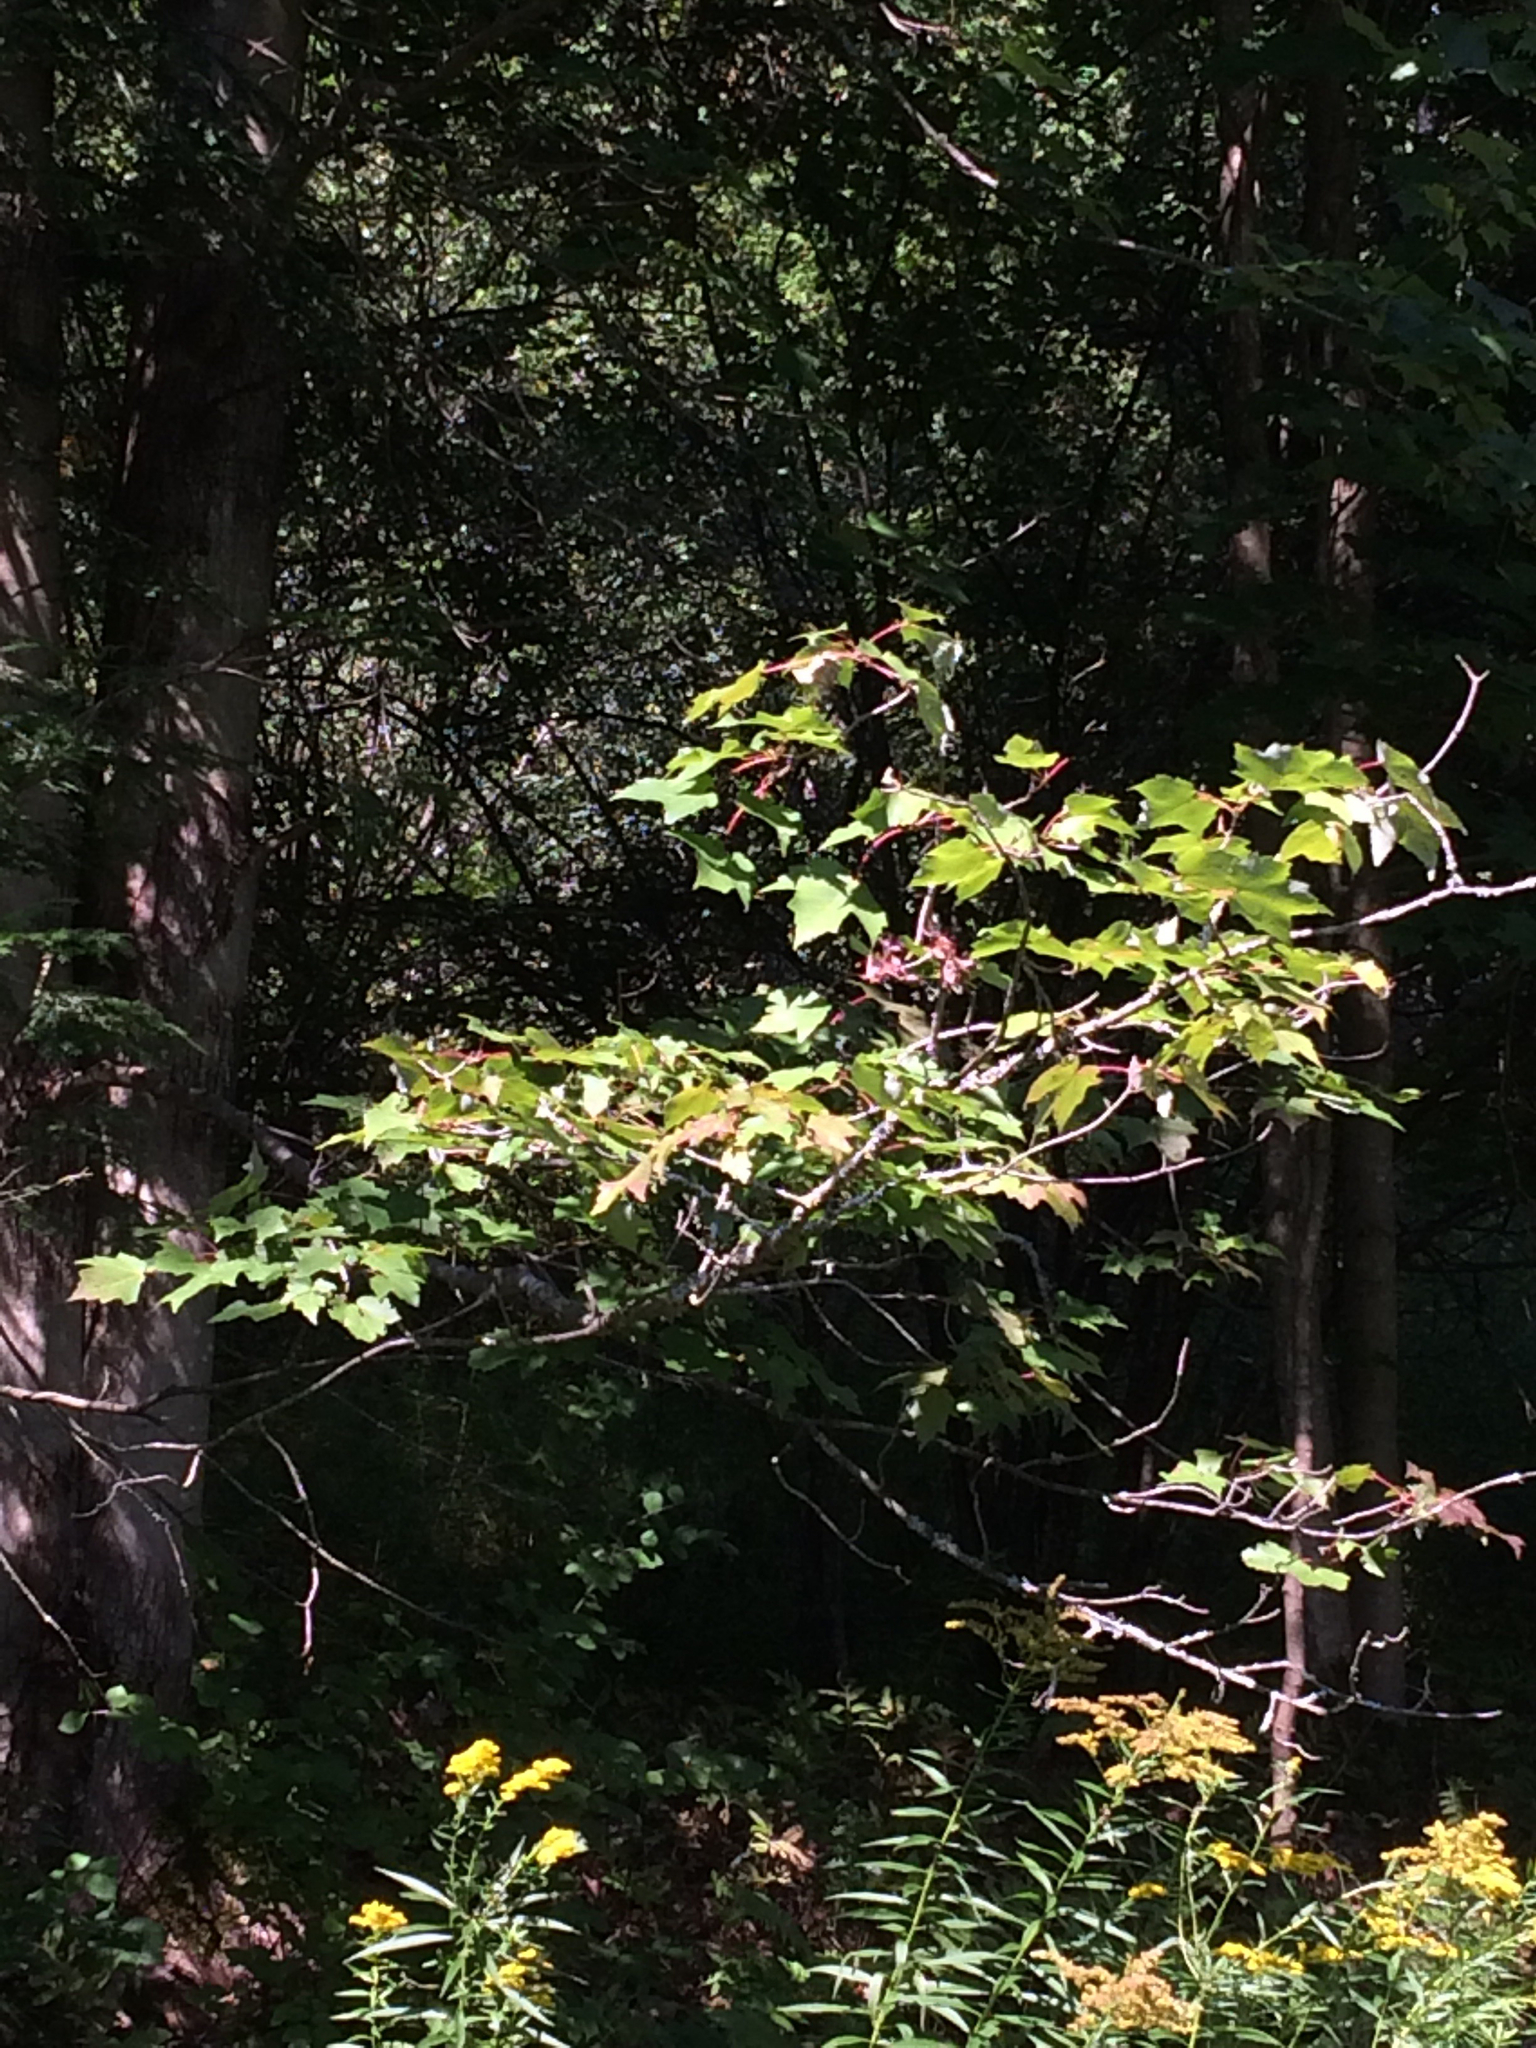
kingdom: Plantae
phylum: Tracheophyta
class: Magnoliopsida
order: Sapindales
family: Sapindaceae
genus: Acer
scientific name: Acer rubrum
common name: Red maple
